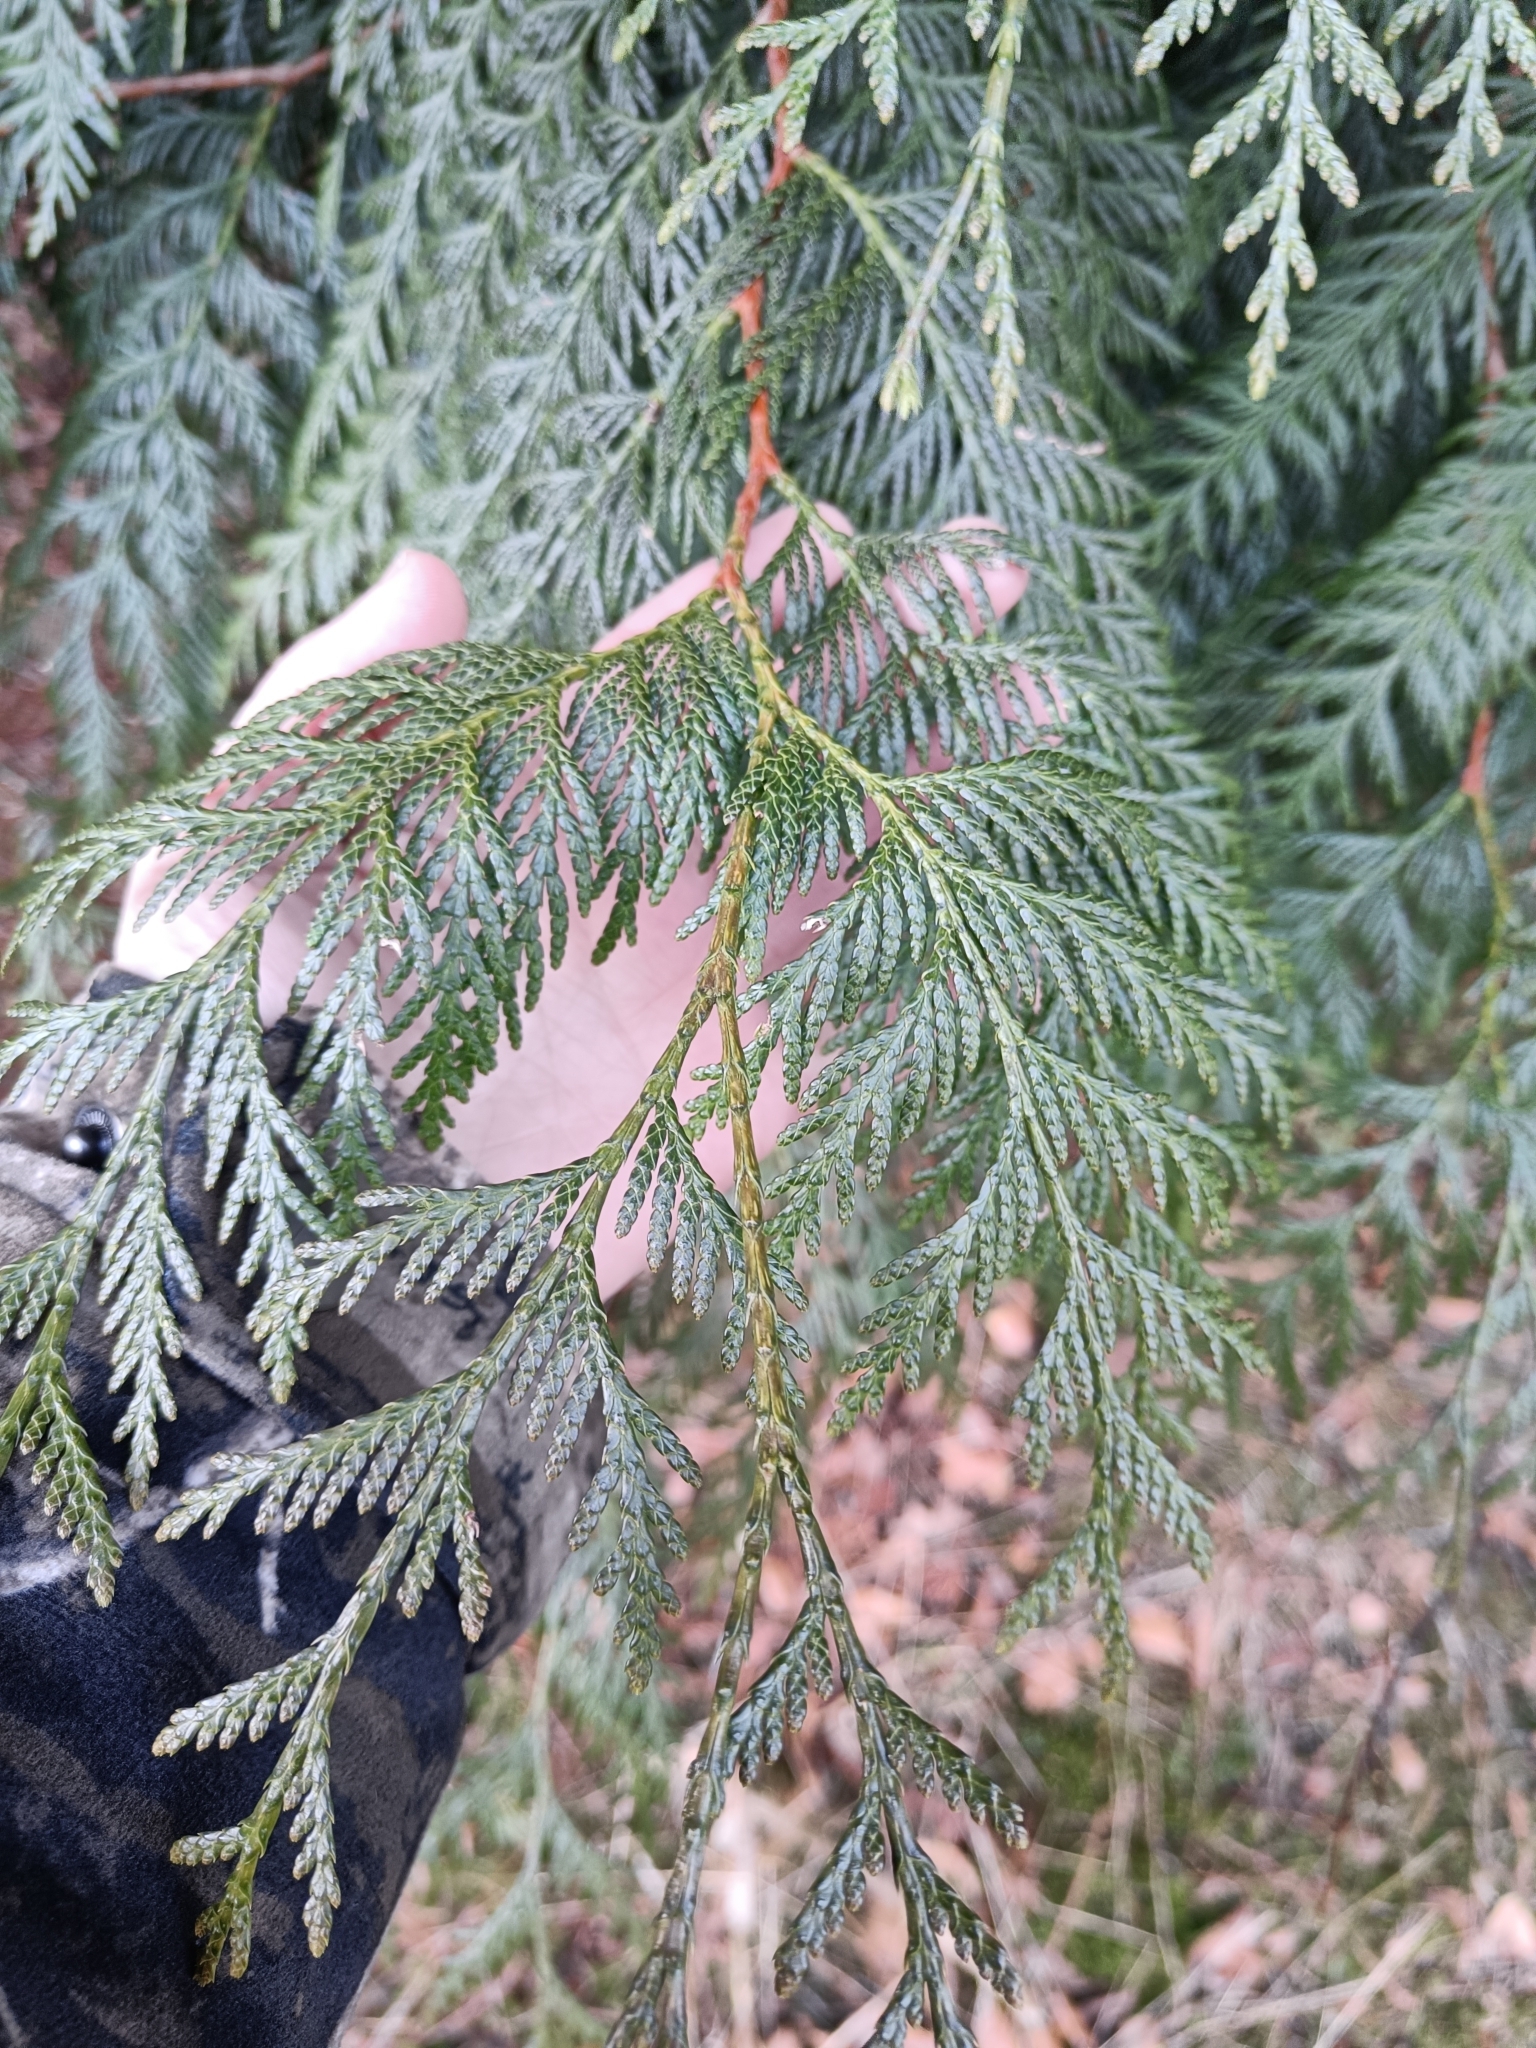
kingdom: Plantae
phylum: Tracheophyta
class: Pinopsida
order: Pinales
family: Cupressaceae
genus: Thuja
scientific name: Thuja plicata
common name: Western red-cedar
